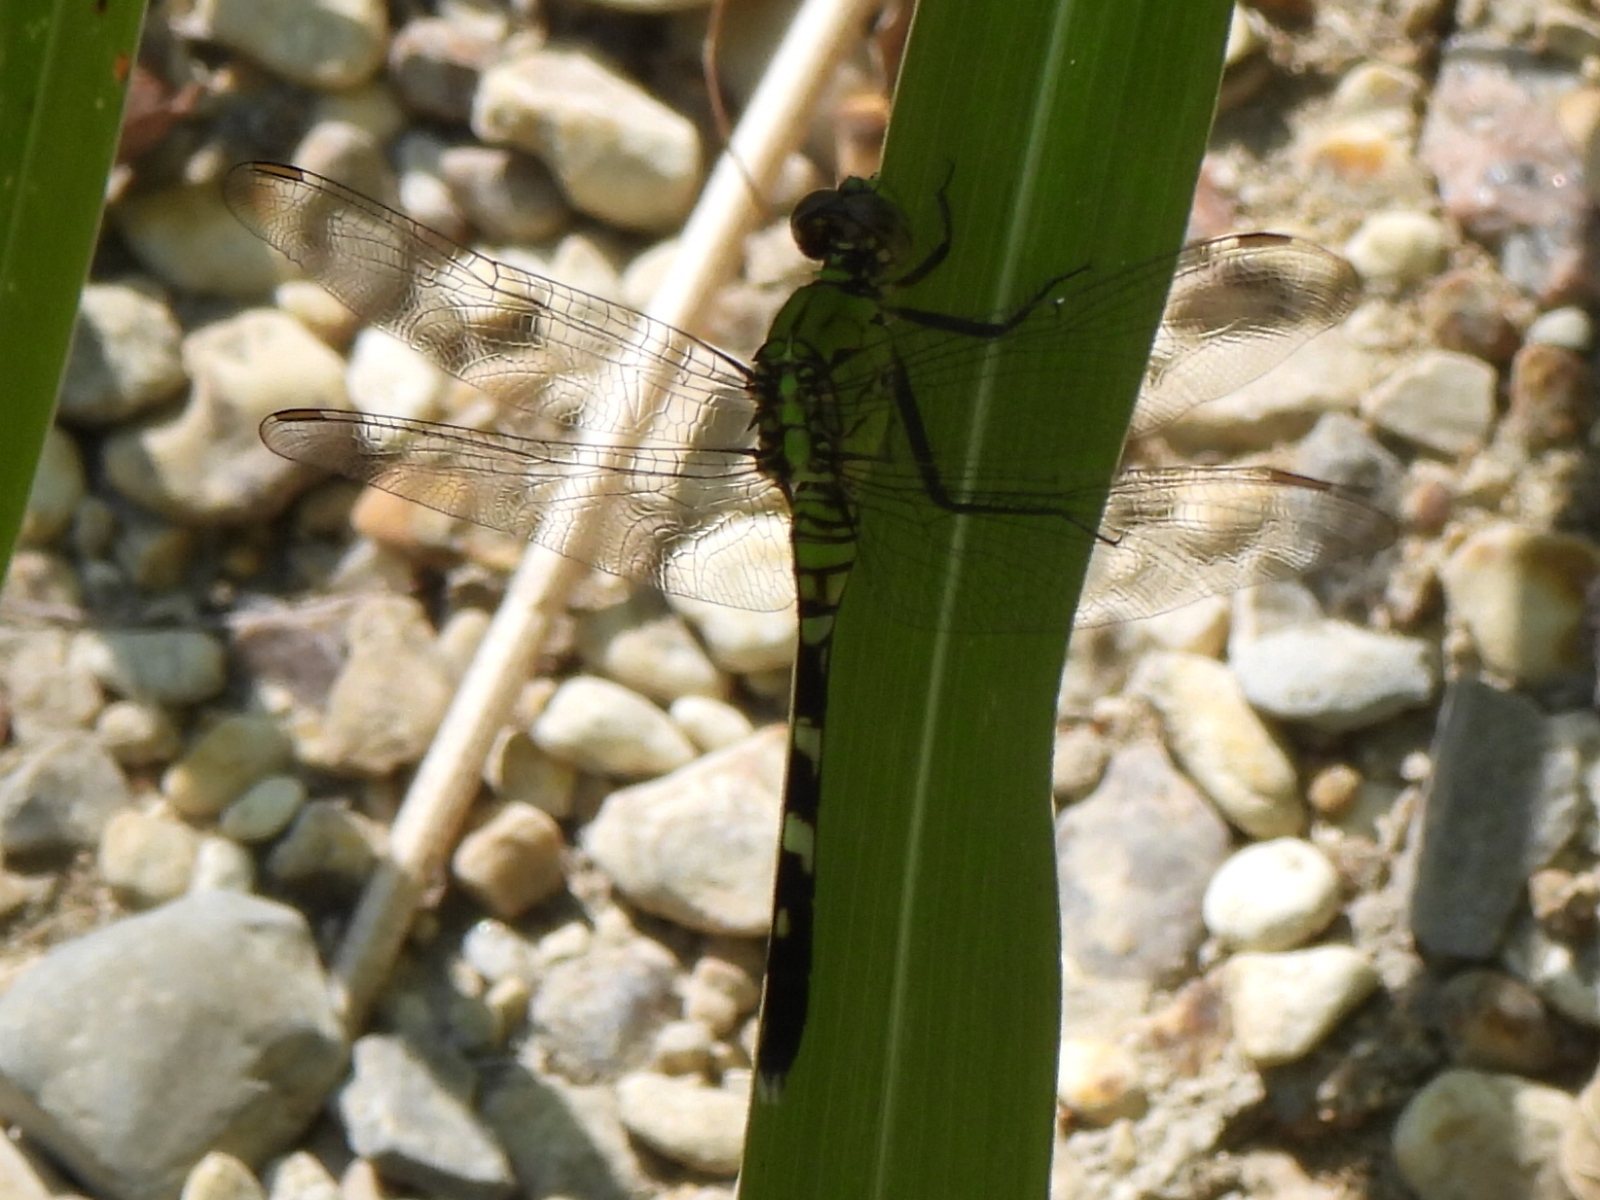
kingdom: Animalia
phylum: Arthropoda
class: Insecta
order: Odonata
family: Libellulidae
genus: Erythemis
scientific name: Erythemis simplicicollis
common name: Eastern pondhawk
